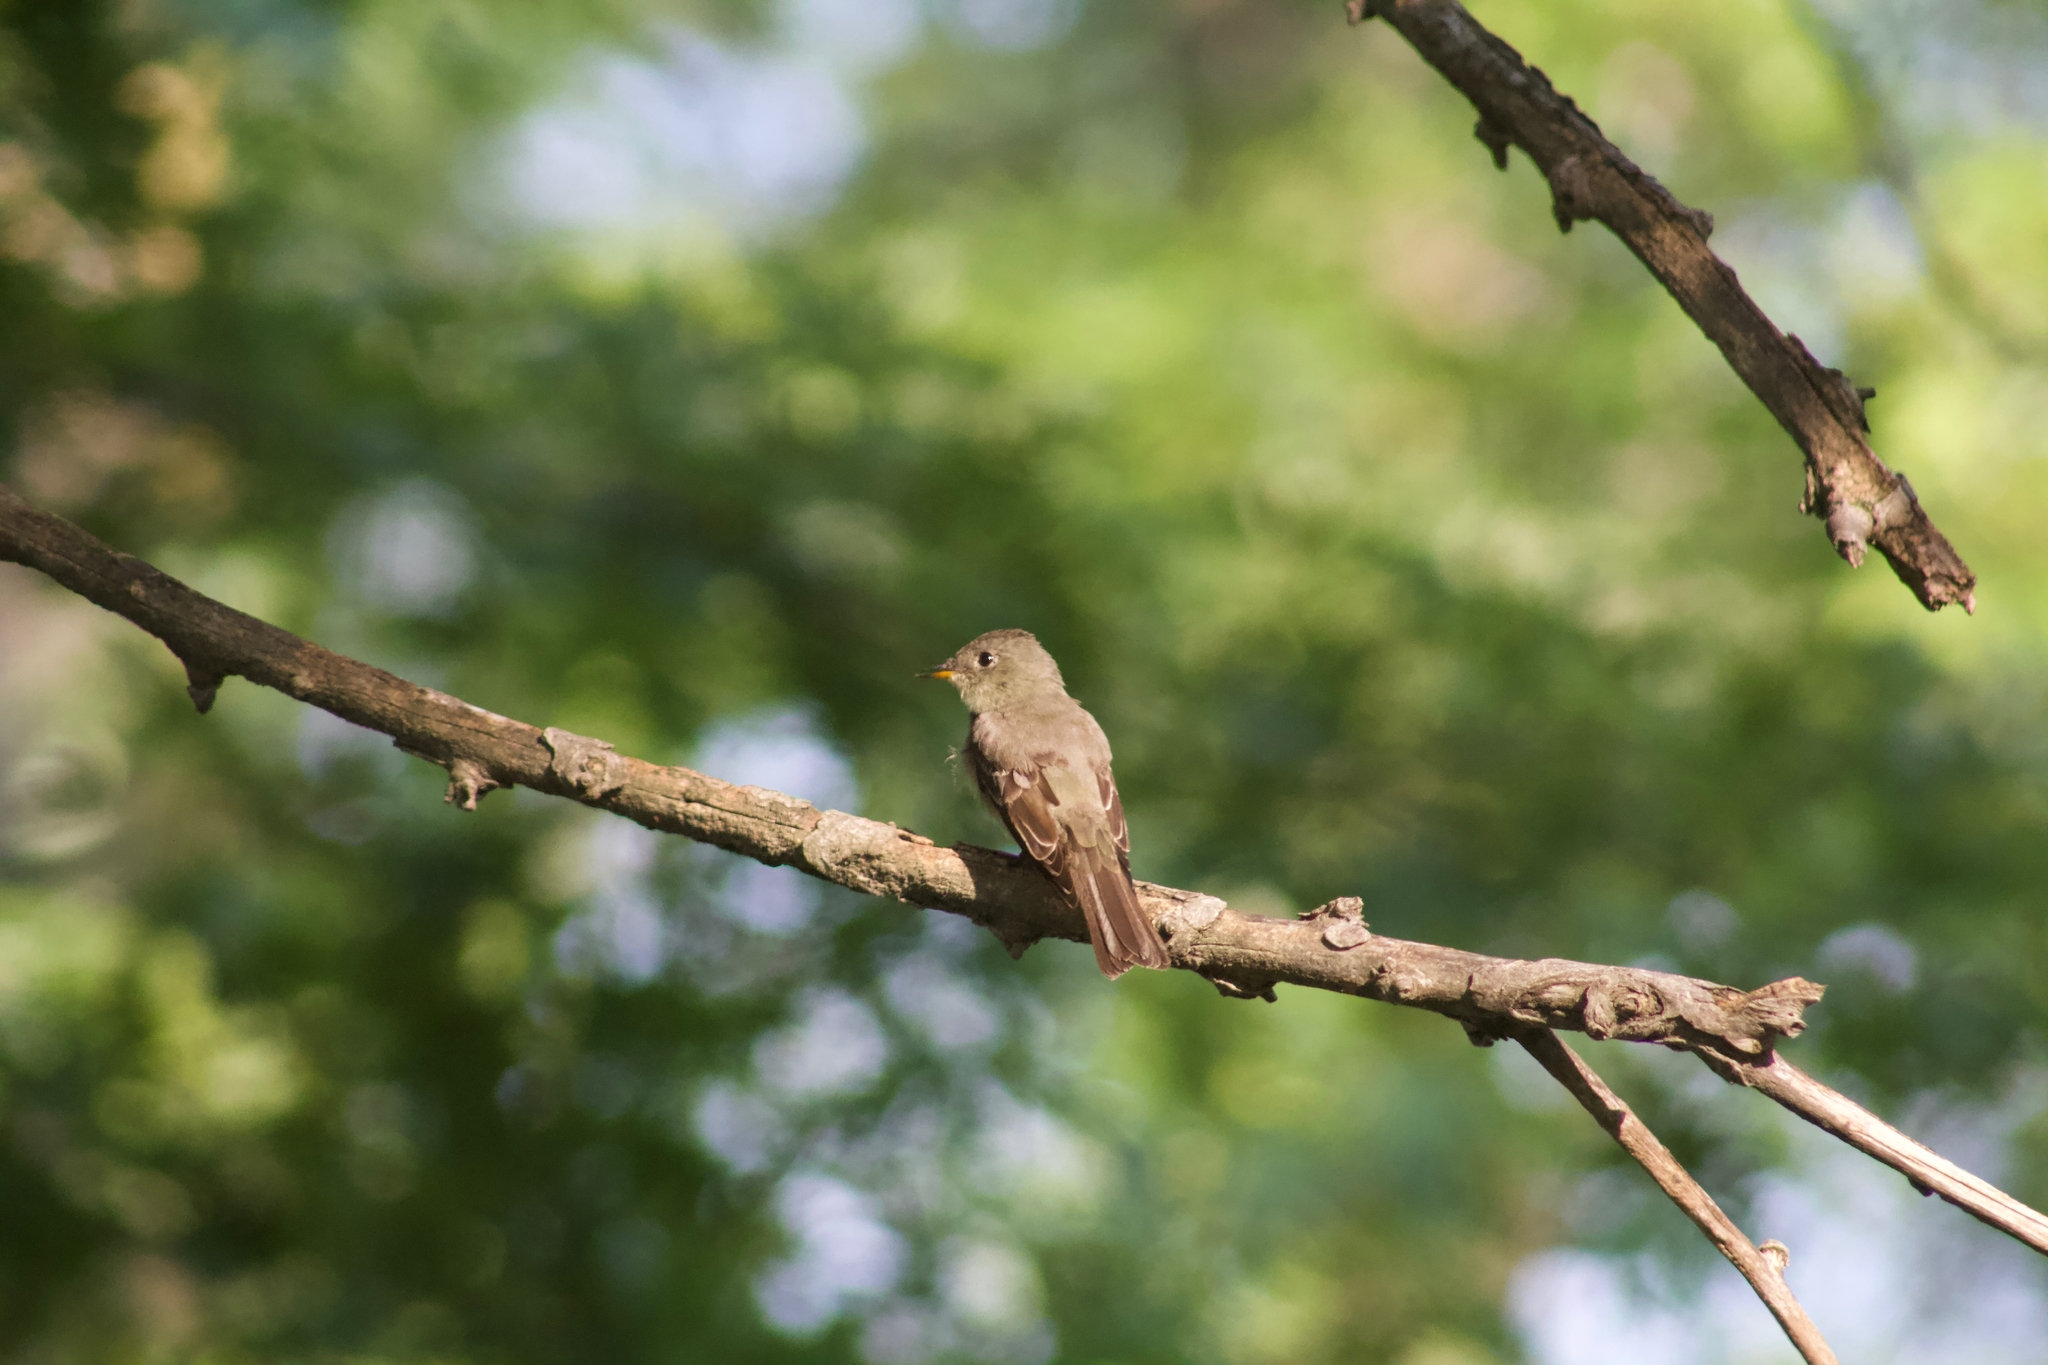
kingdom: Animalia
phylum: Chordata
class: Aves
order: Passeriformes
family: Tyrannidae
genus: Contopus
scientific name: Contopus virens
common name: Eastern wood-pewee
